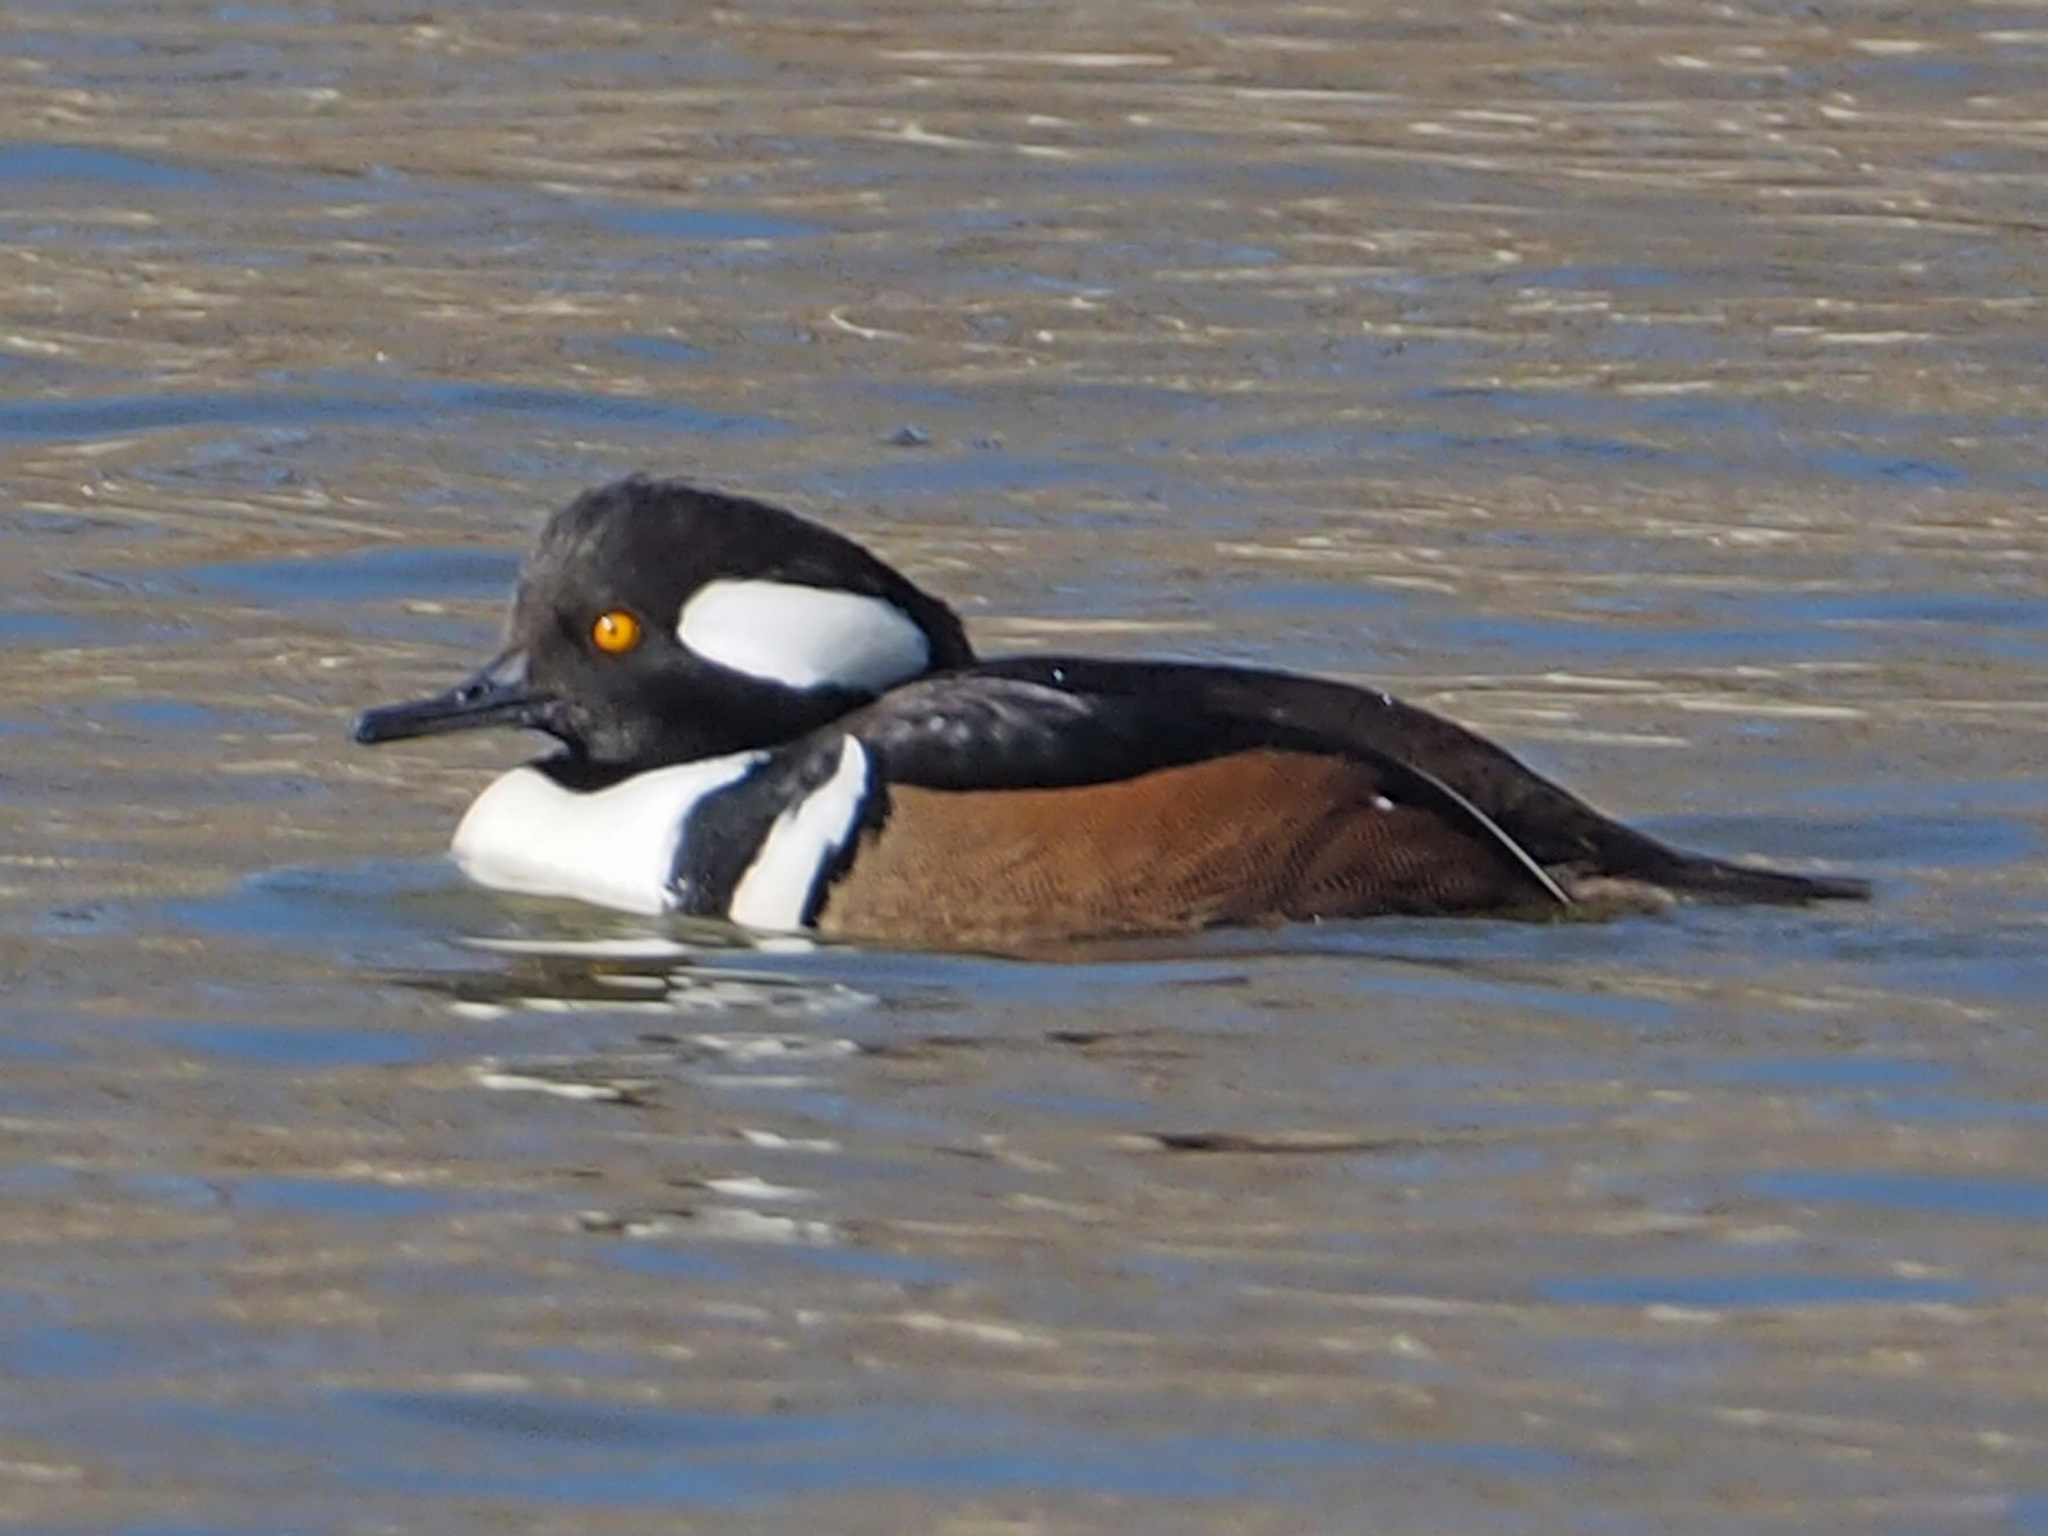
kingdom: Animalia
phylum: Chordata
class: Aves
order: Anseriformes
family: Anatidae
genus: Lophodytes
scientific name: Lophodytes cucullatus
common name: Hooded merganser
